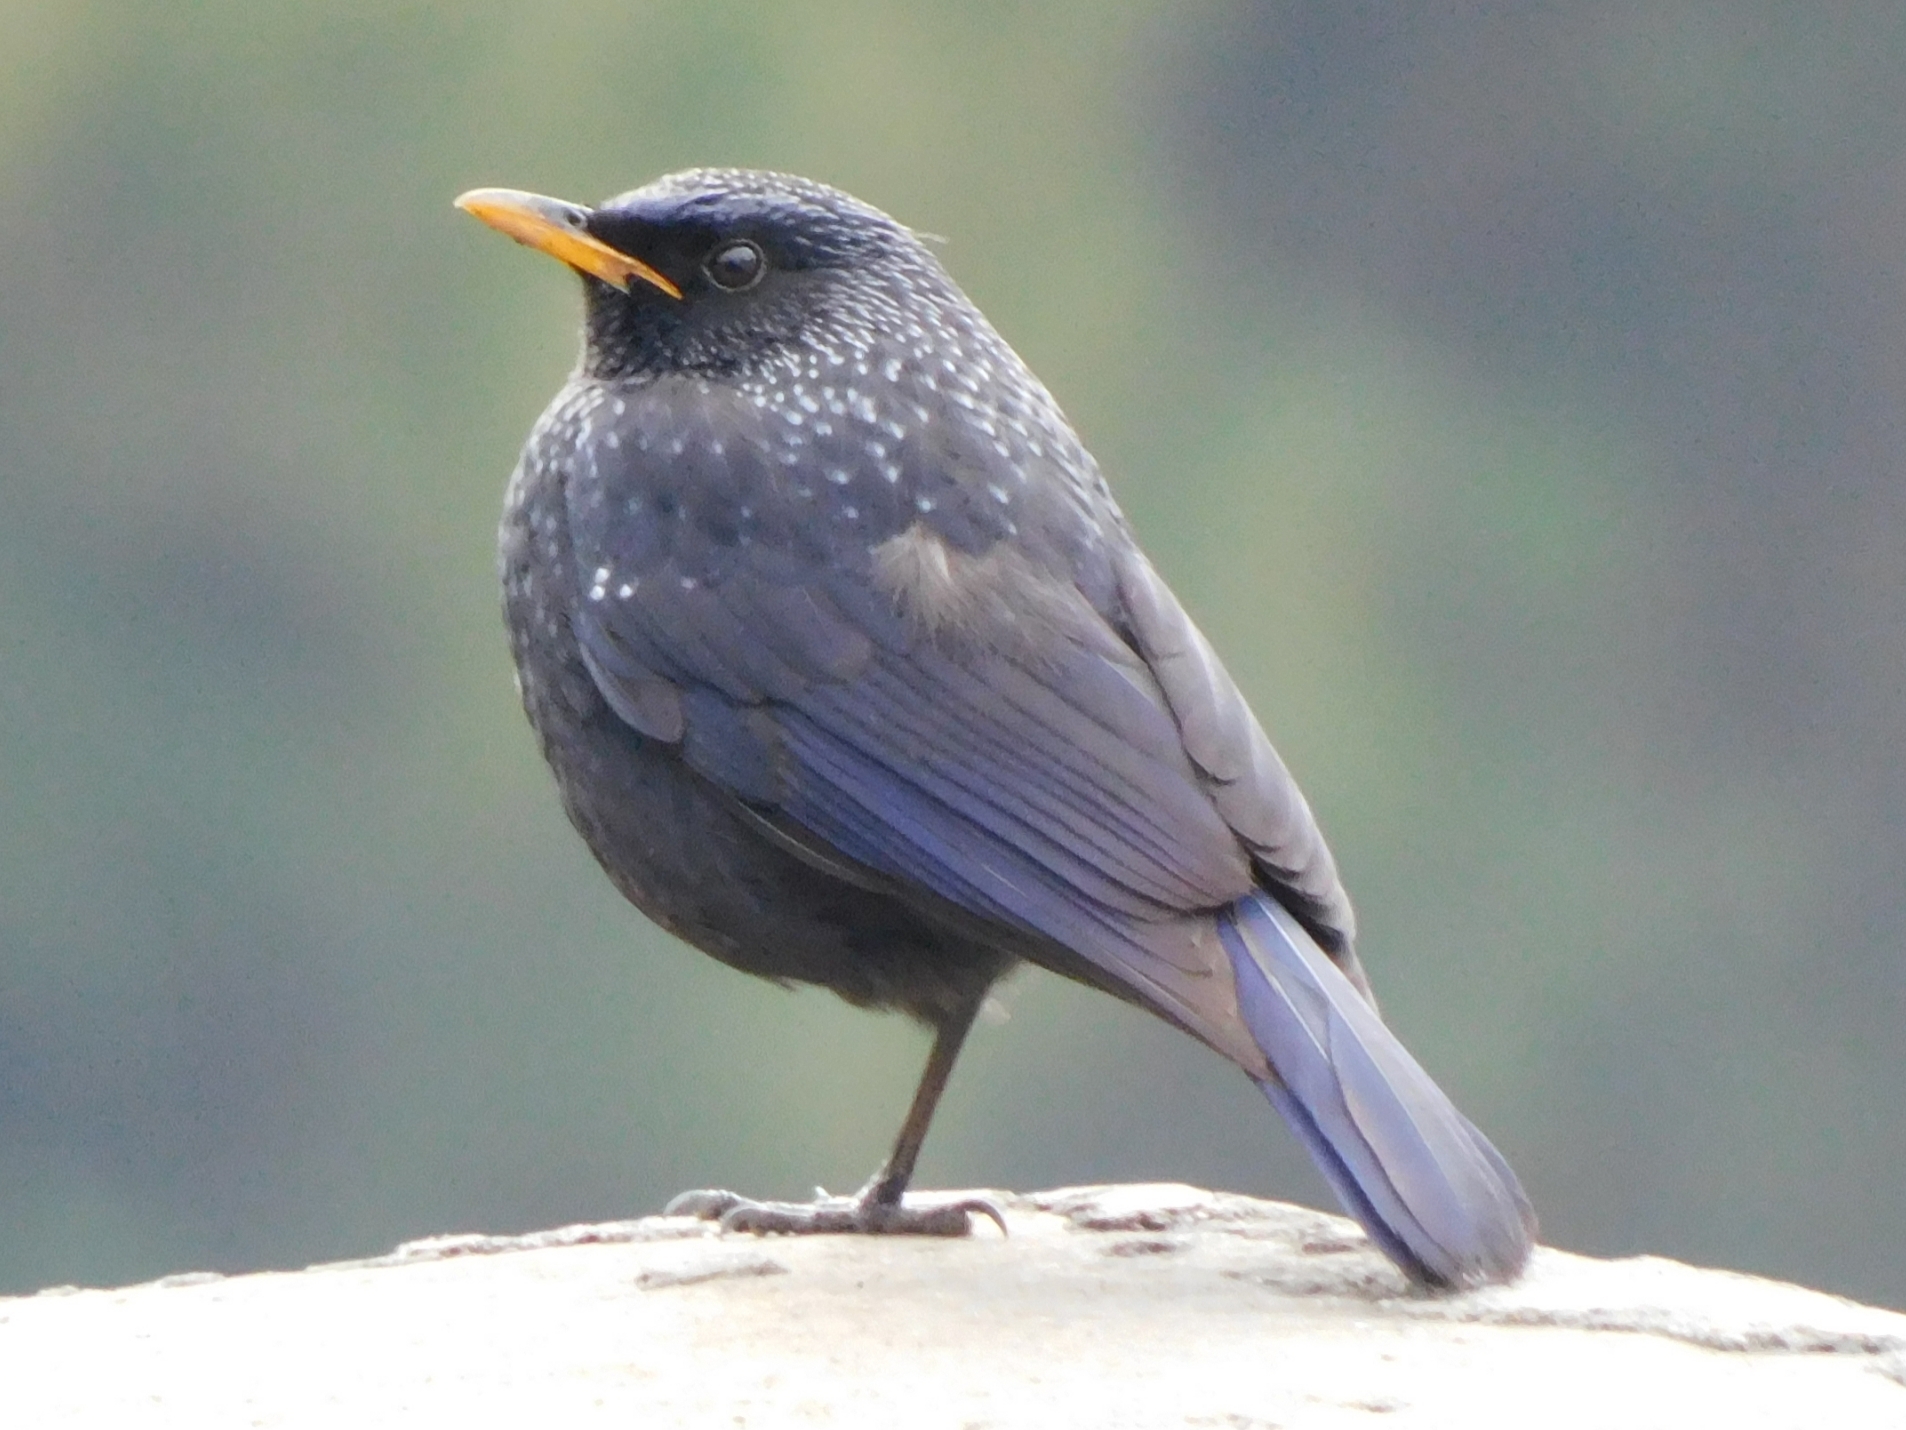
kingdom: Animalia
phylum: Chordata
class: Aves
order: Passeriformes
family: Muscicapidae
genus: Myophonus
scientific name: Myophonus caeruleus
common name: Blue whistling-thrush
